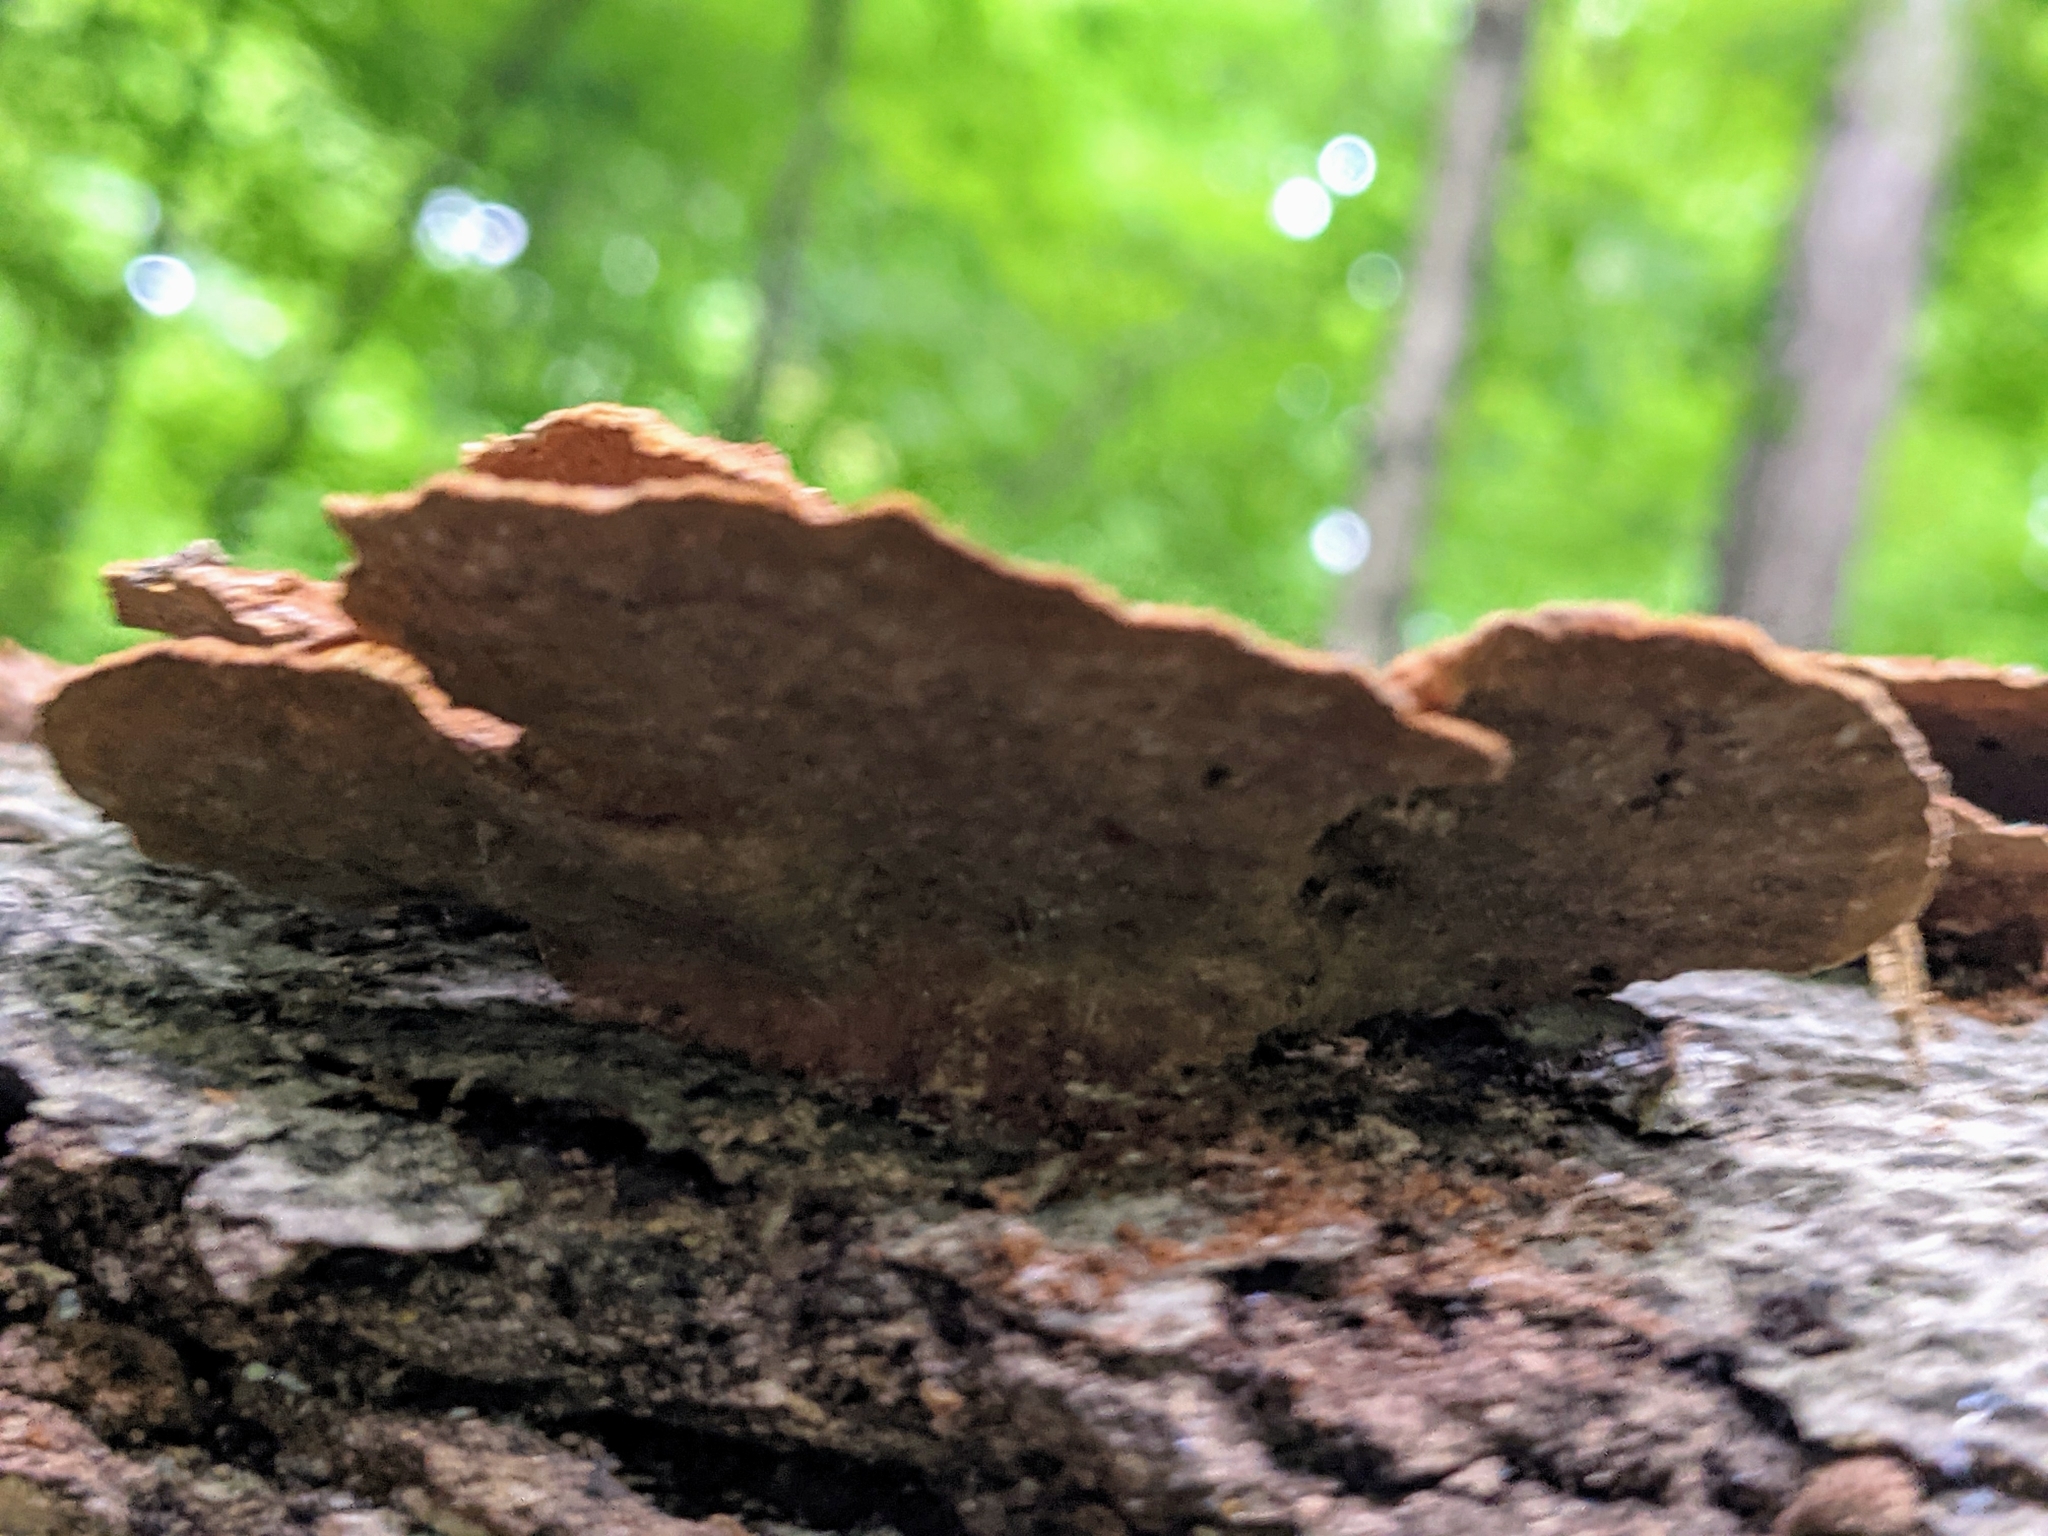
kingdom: Fungi
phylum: Basidiomycota
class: Agaricomycetes
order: Hymenochaetales
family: Hymenochaetaceae
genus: Phellinus
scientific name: Phellinus gilvus
